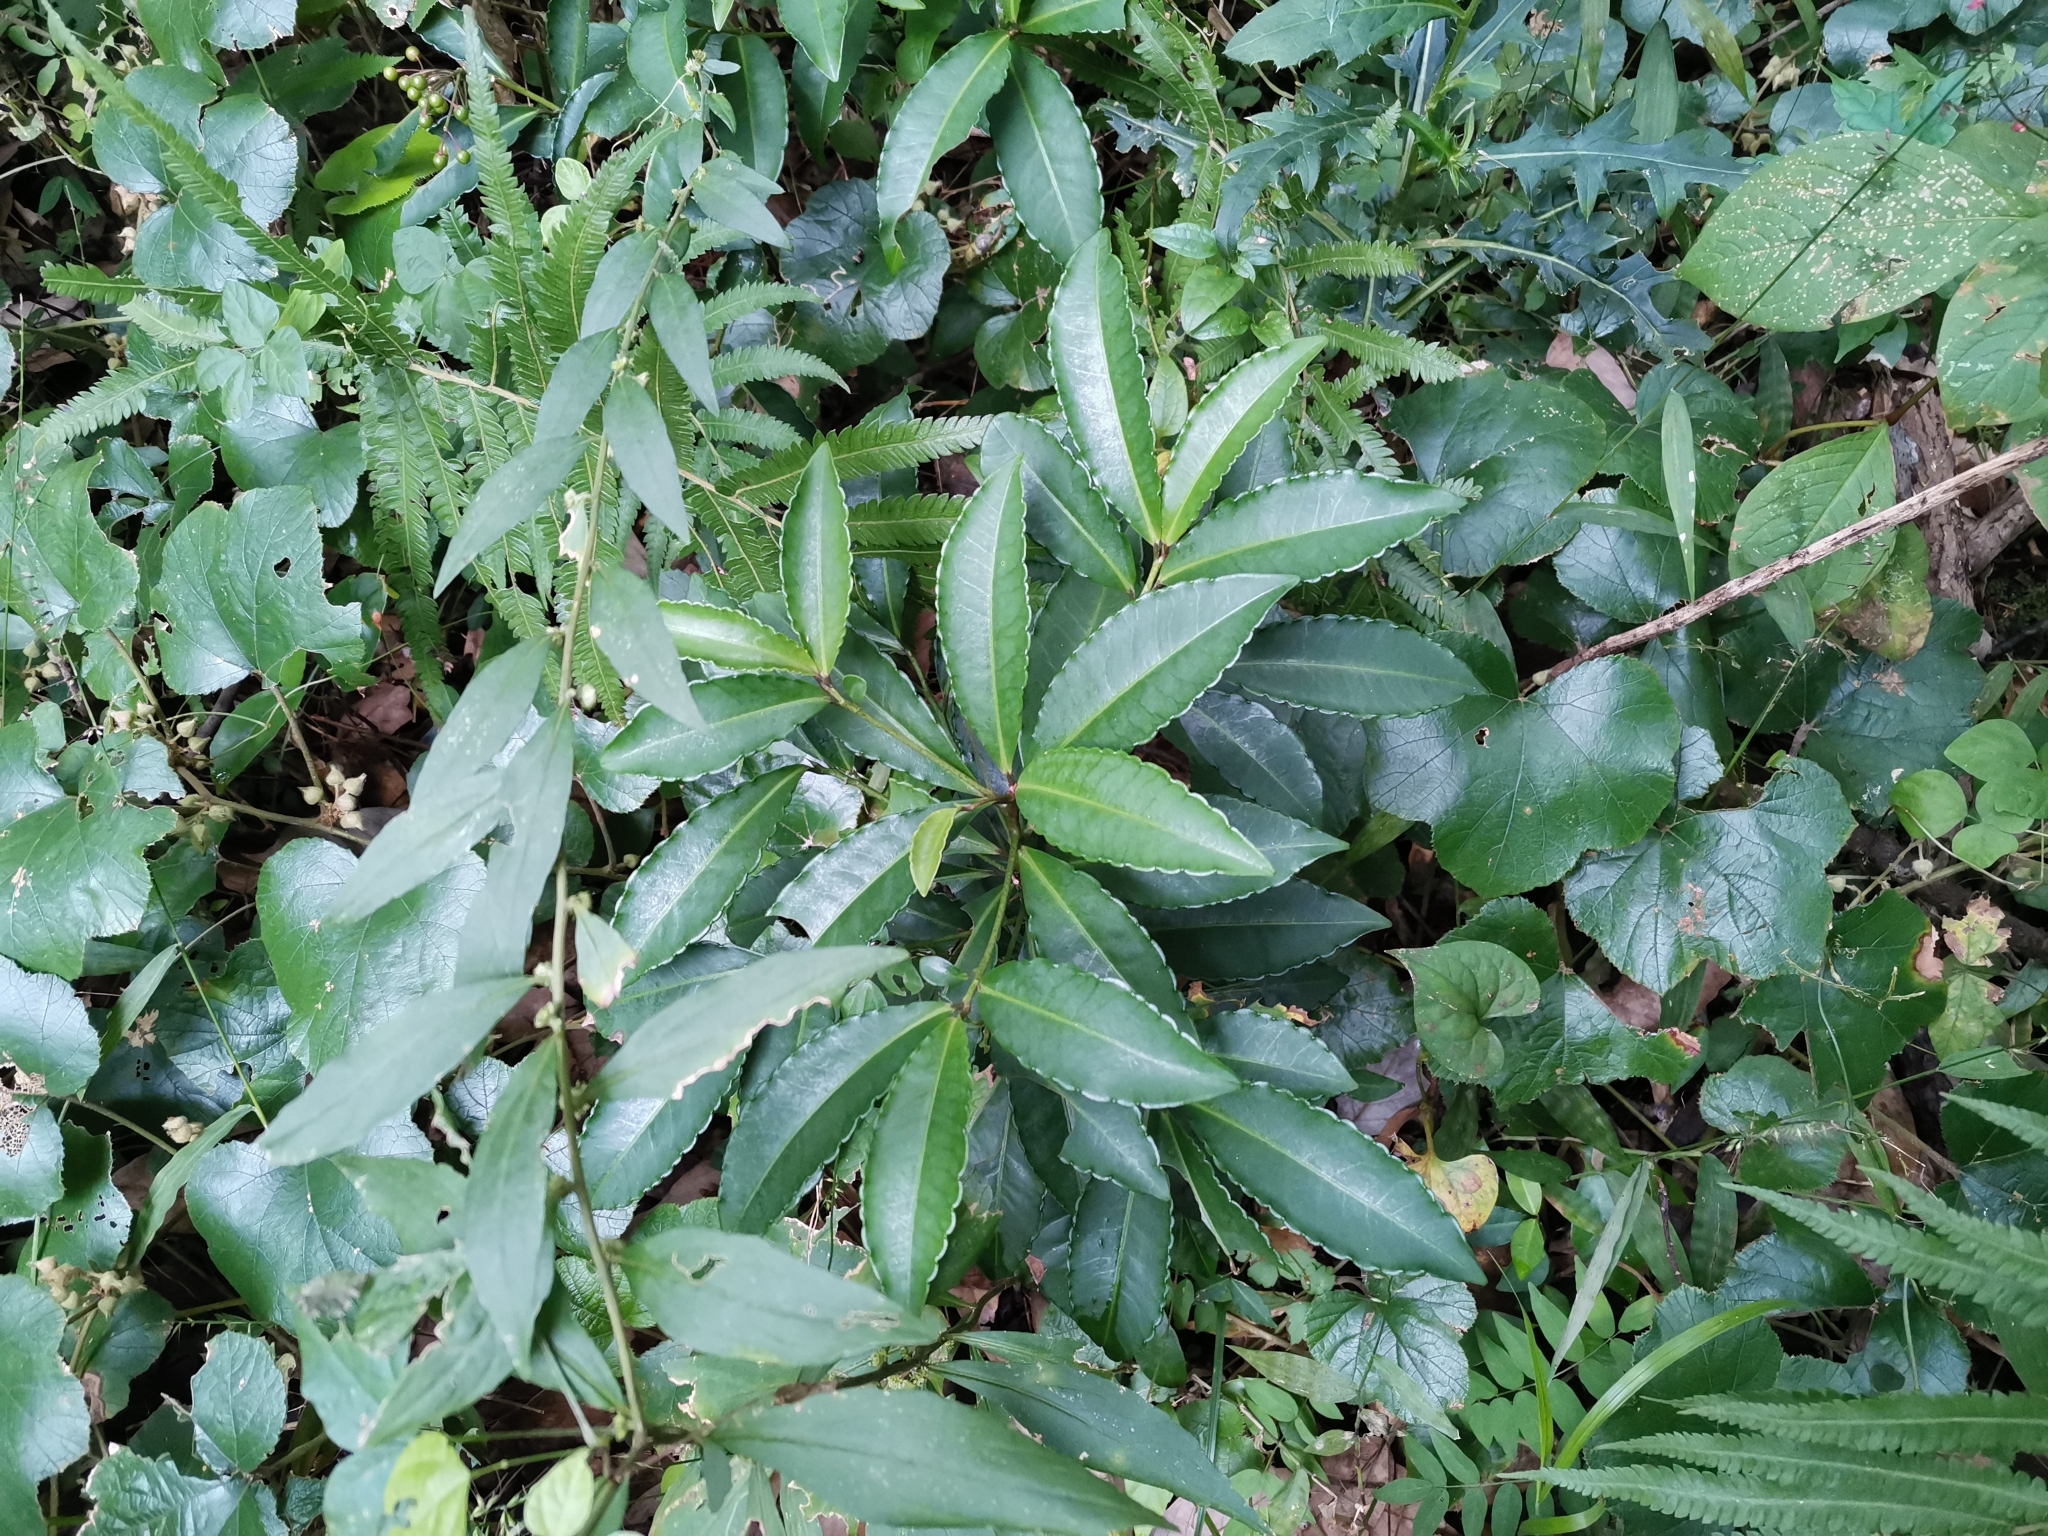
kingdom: Plantae
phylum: Tracheophyta
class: Magnoliopsida
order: Ericales
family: Primulaceae
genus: Ardisia
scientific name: Ardisia crenata
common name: Hen's eyes
